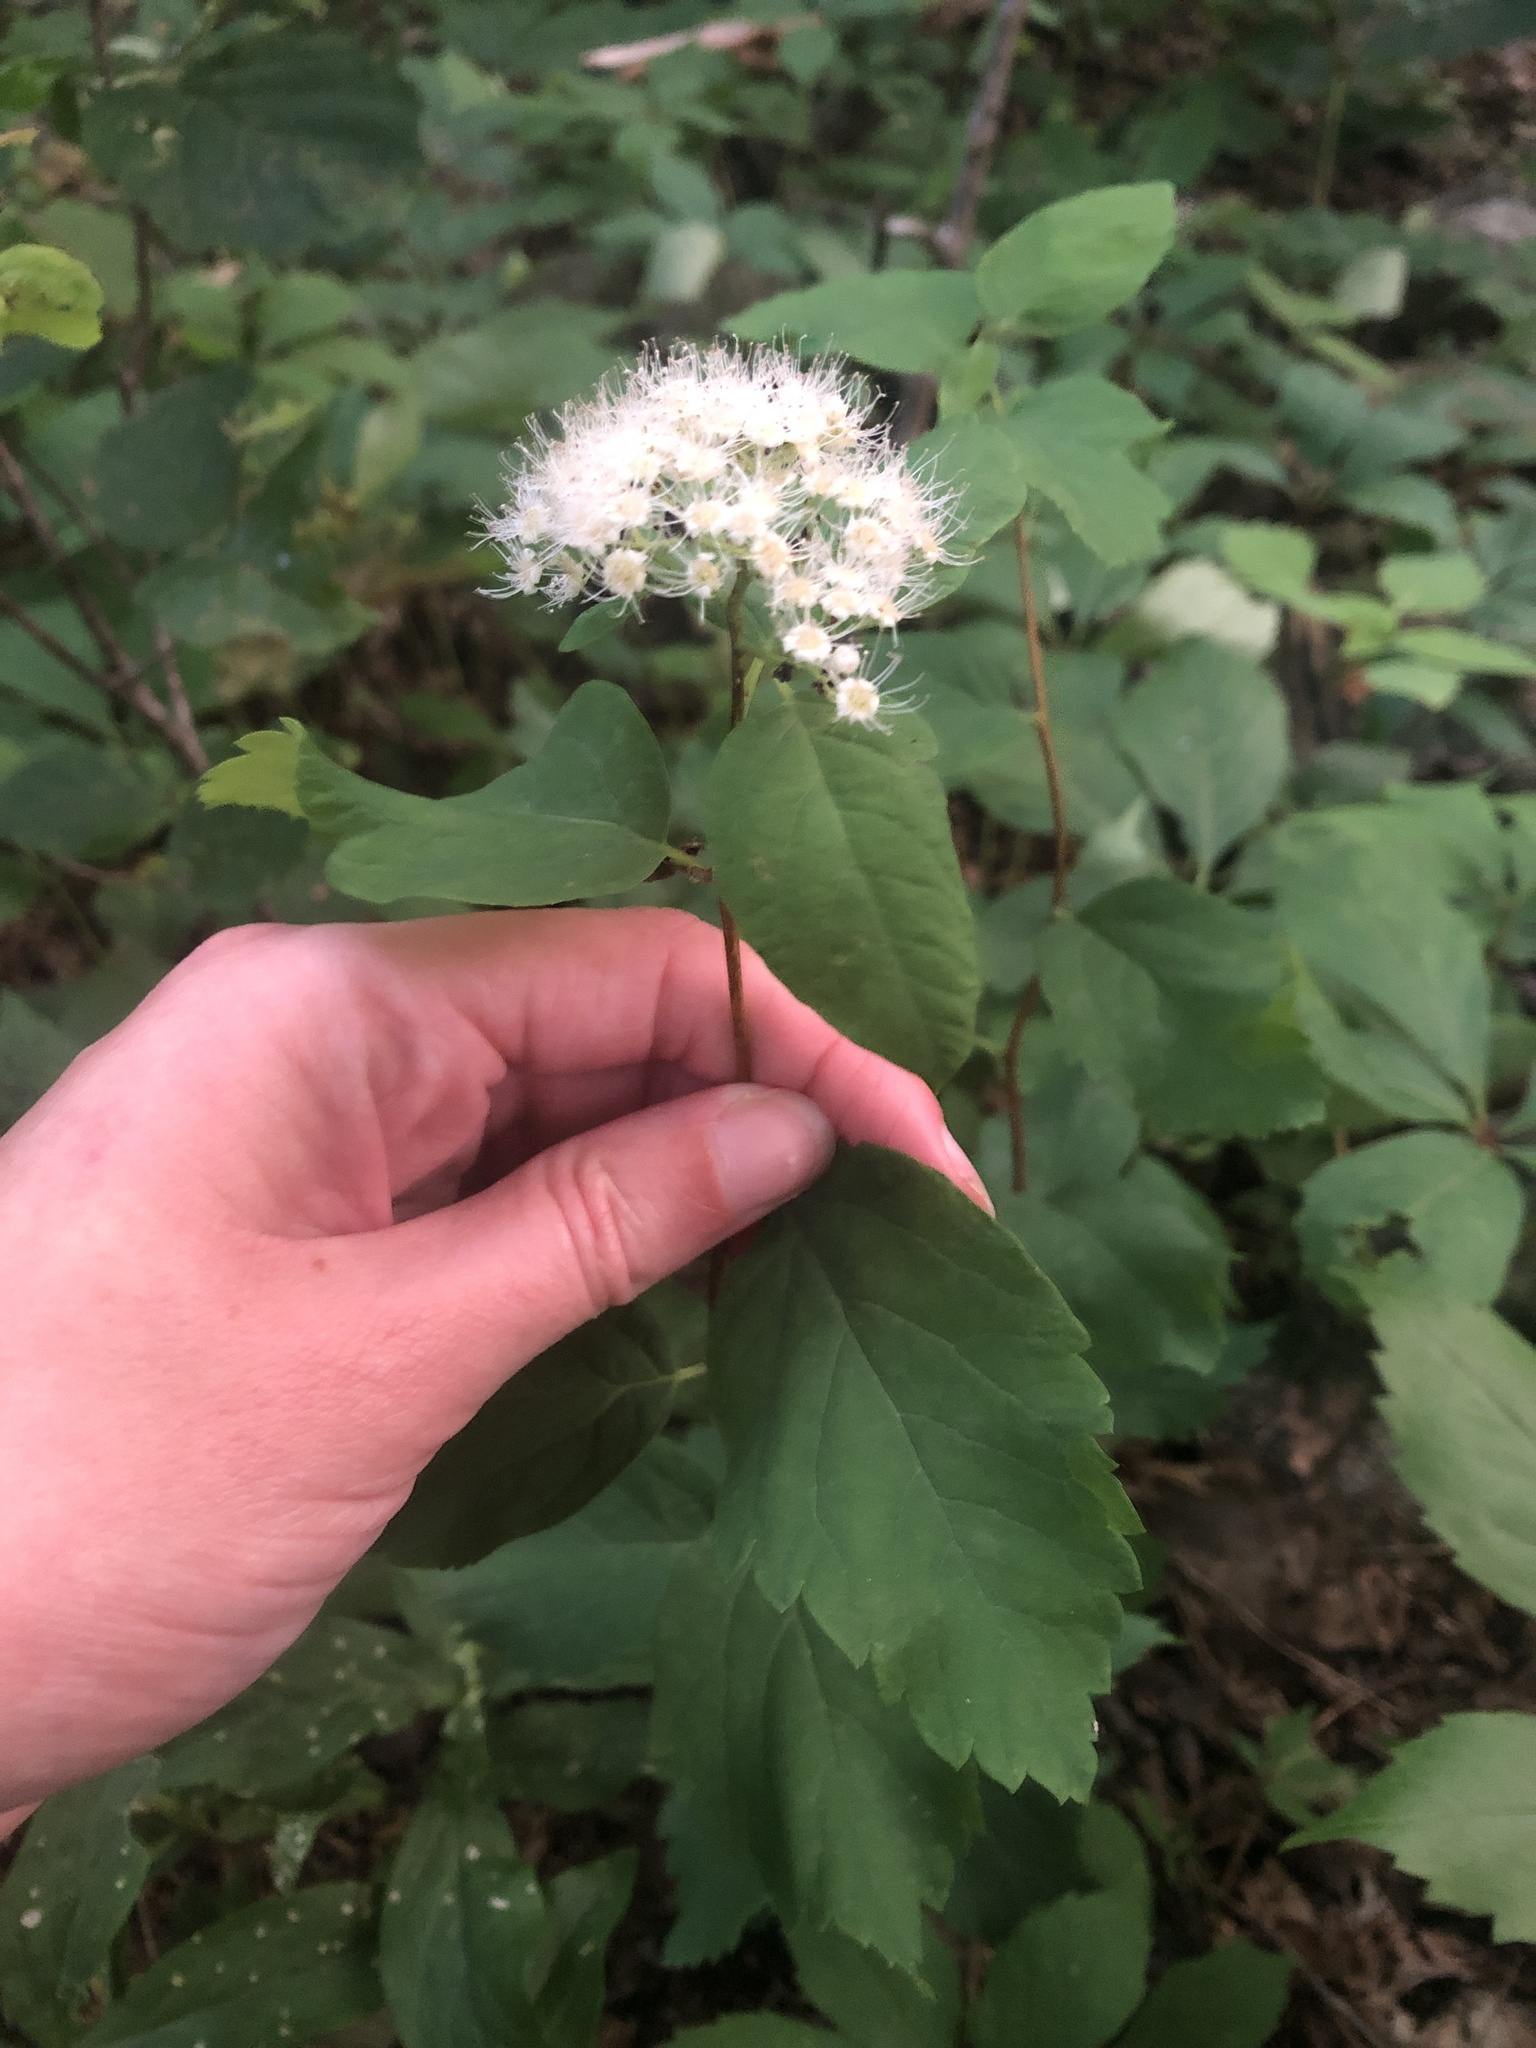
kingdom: Plantae
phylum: Tracheophyta
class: Magnoliopsida
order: Rosales
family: Rosaceae
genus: Spiraea
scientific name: Spiraea corymbosa
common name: Corymbed meadowsweet
